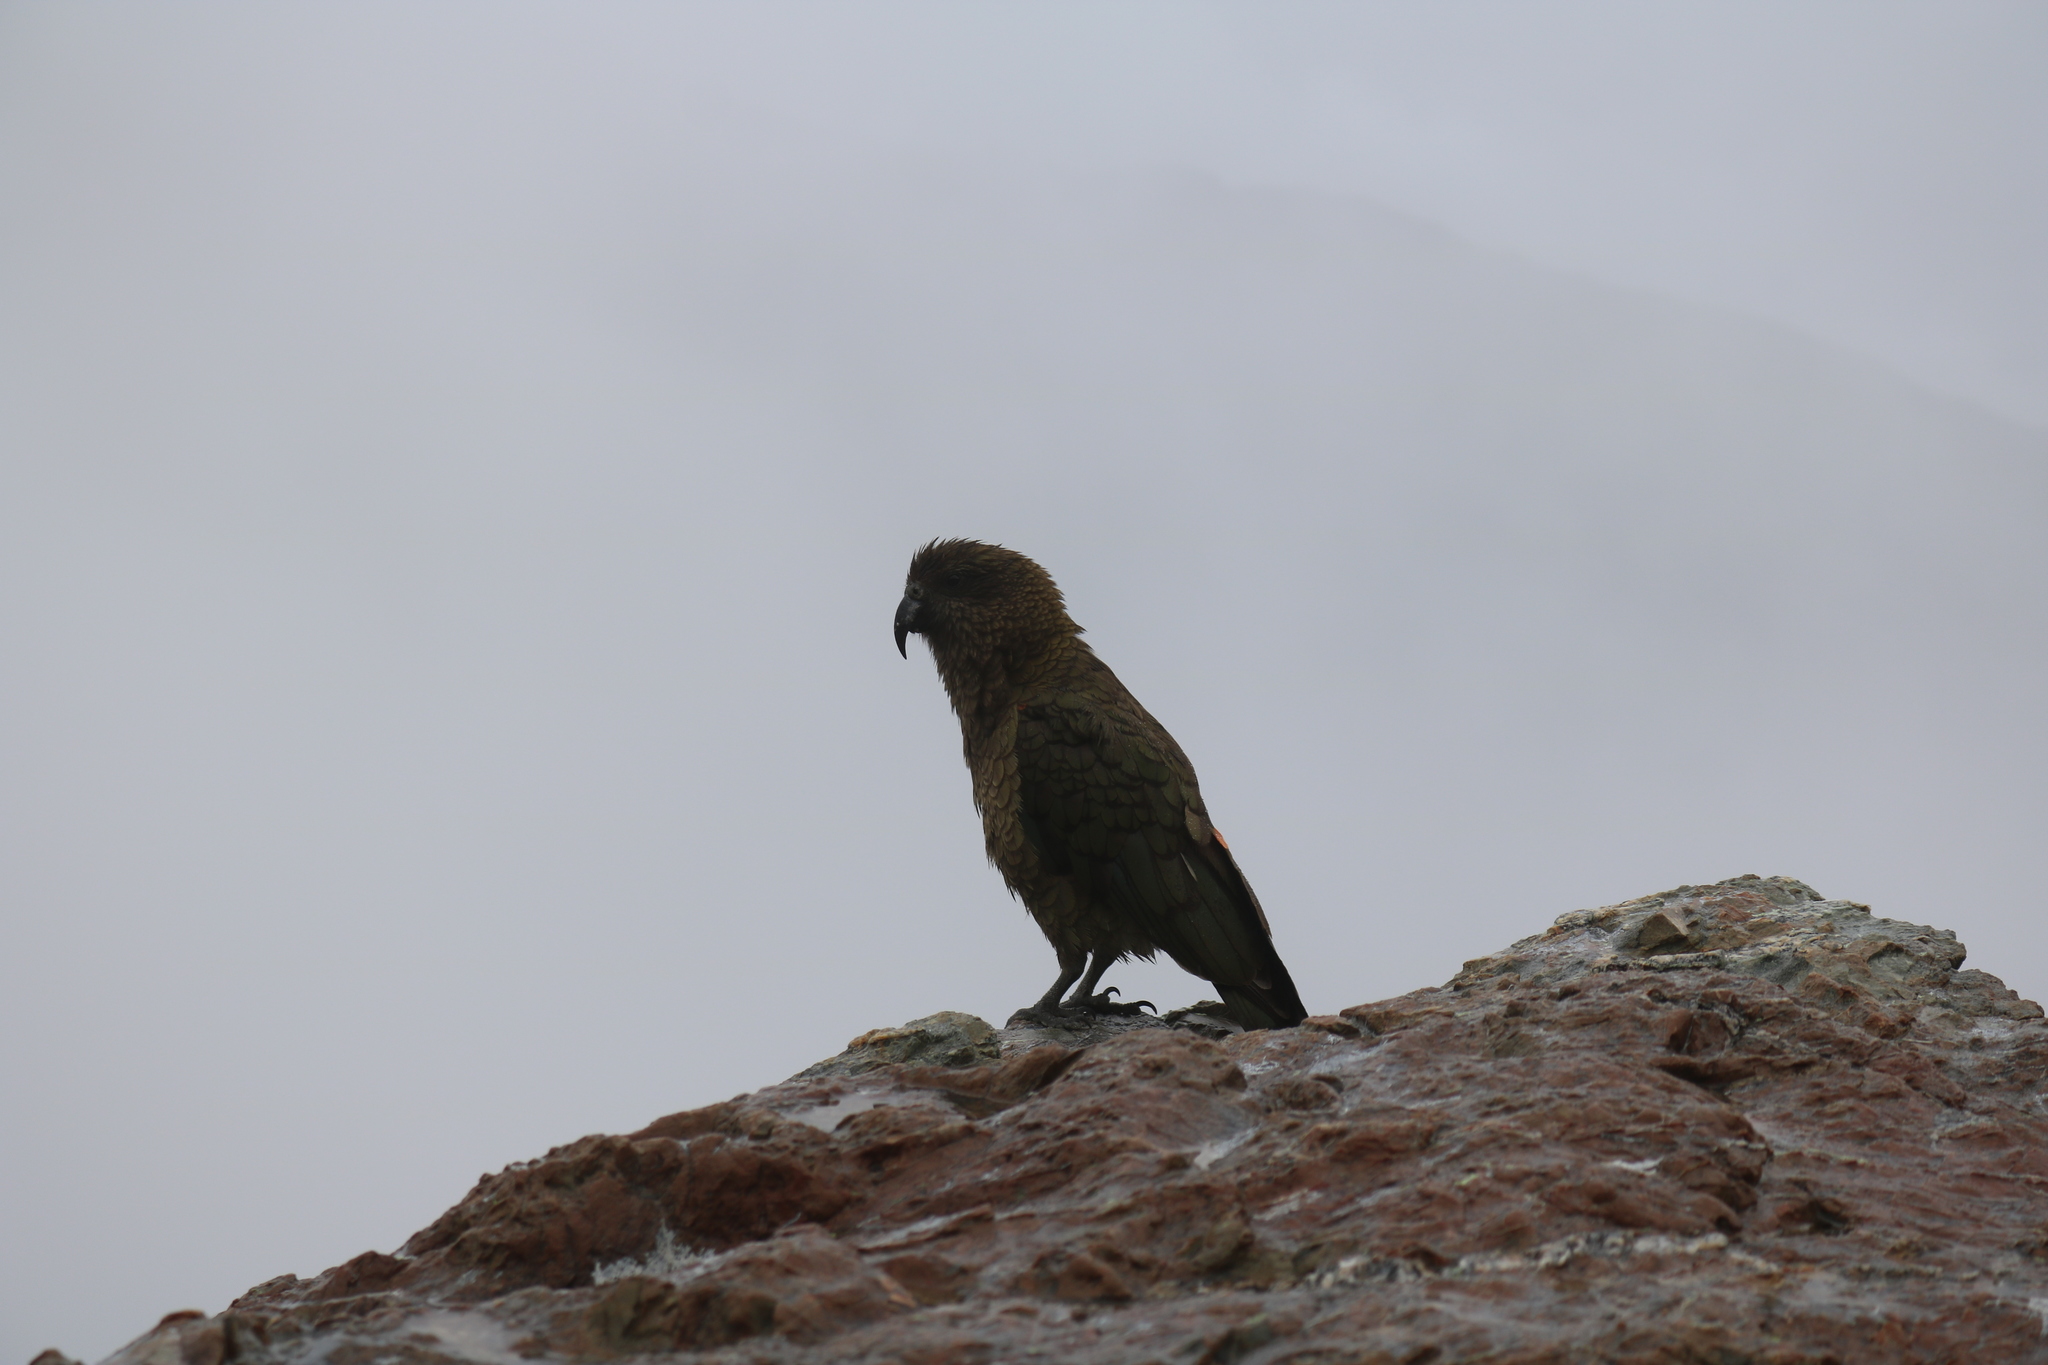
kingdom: Animalia
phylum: Chordata
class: Aves
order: Psittaciformes
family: Psittacidae
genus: Nestor
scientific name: Nestor notabilis
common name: Kea
